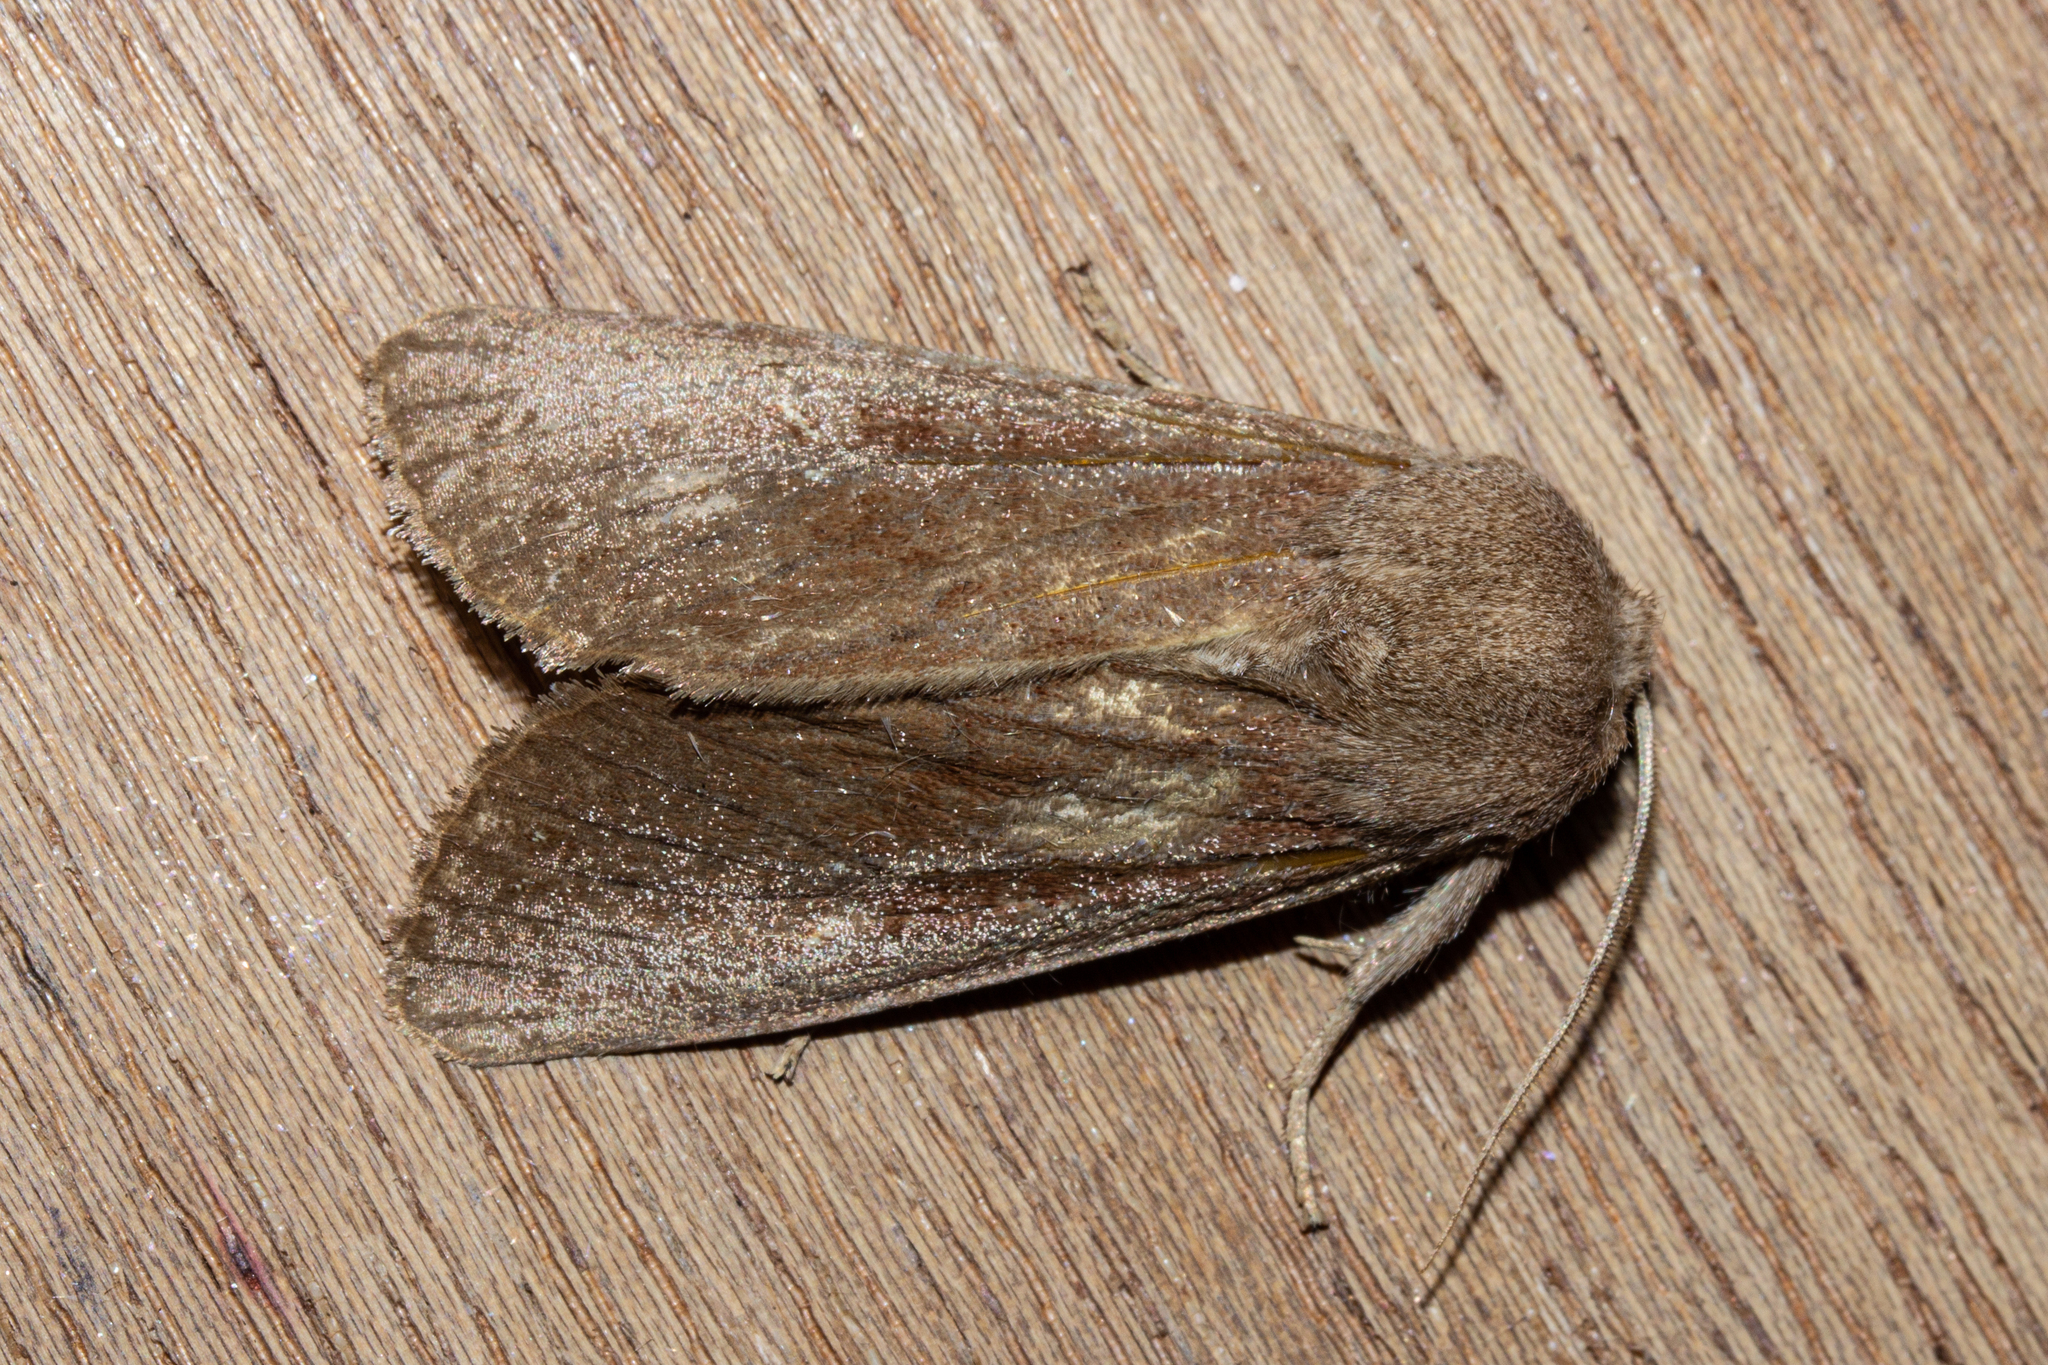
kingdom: Animalia
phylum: Arthropoda
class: Insecta
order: Lepidoptera
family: Noctuidae
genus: Ichneutica
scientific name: Ichneutica nullifera
